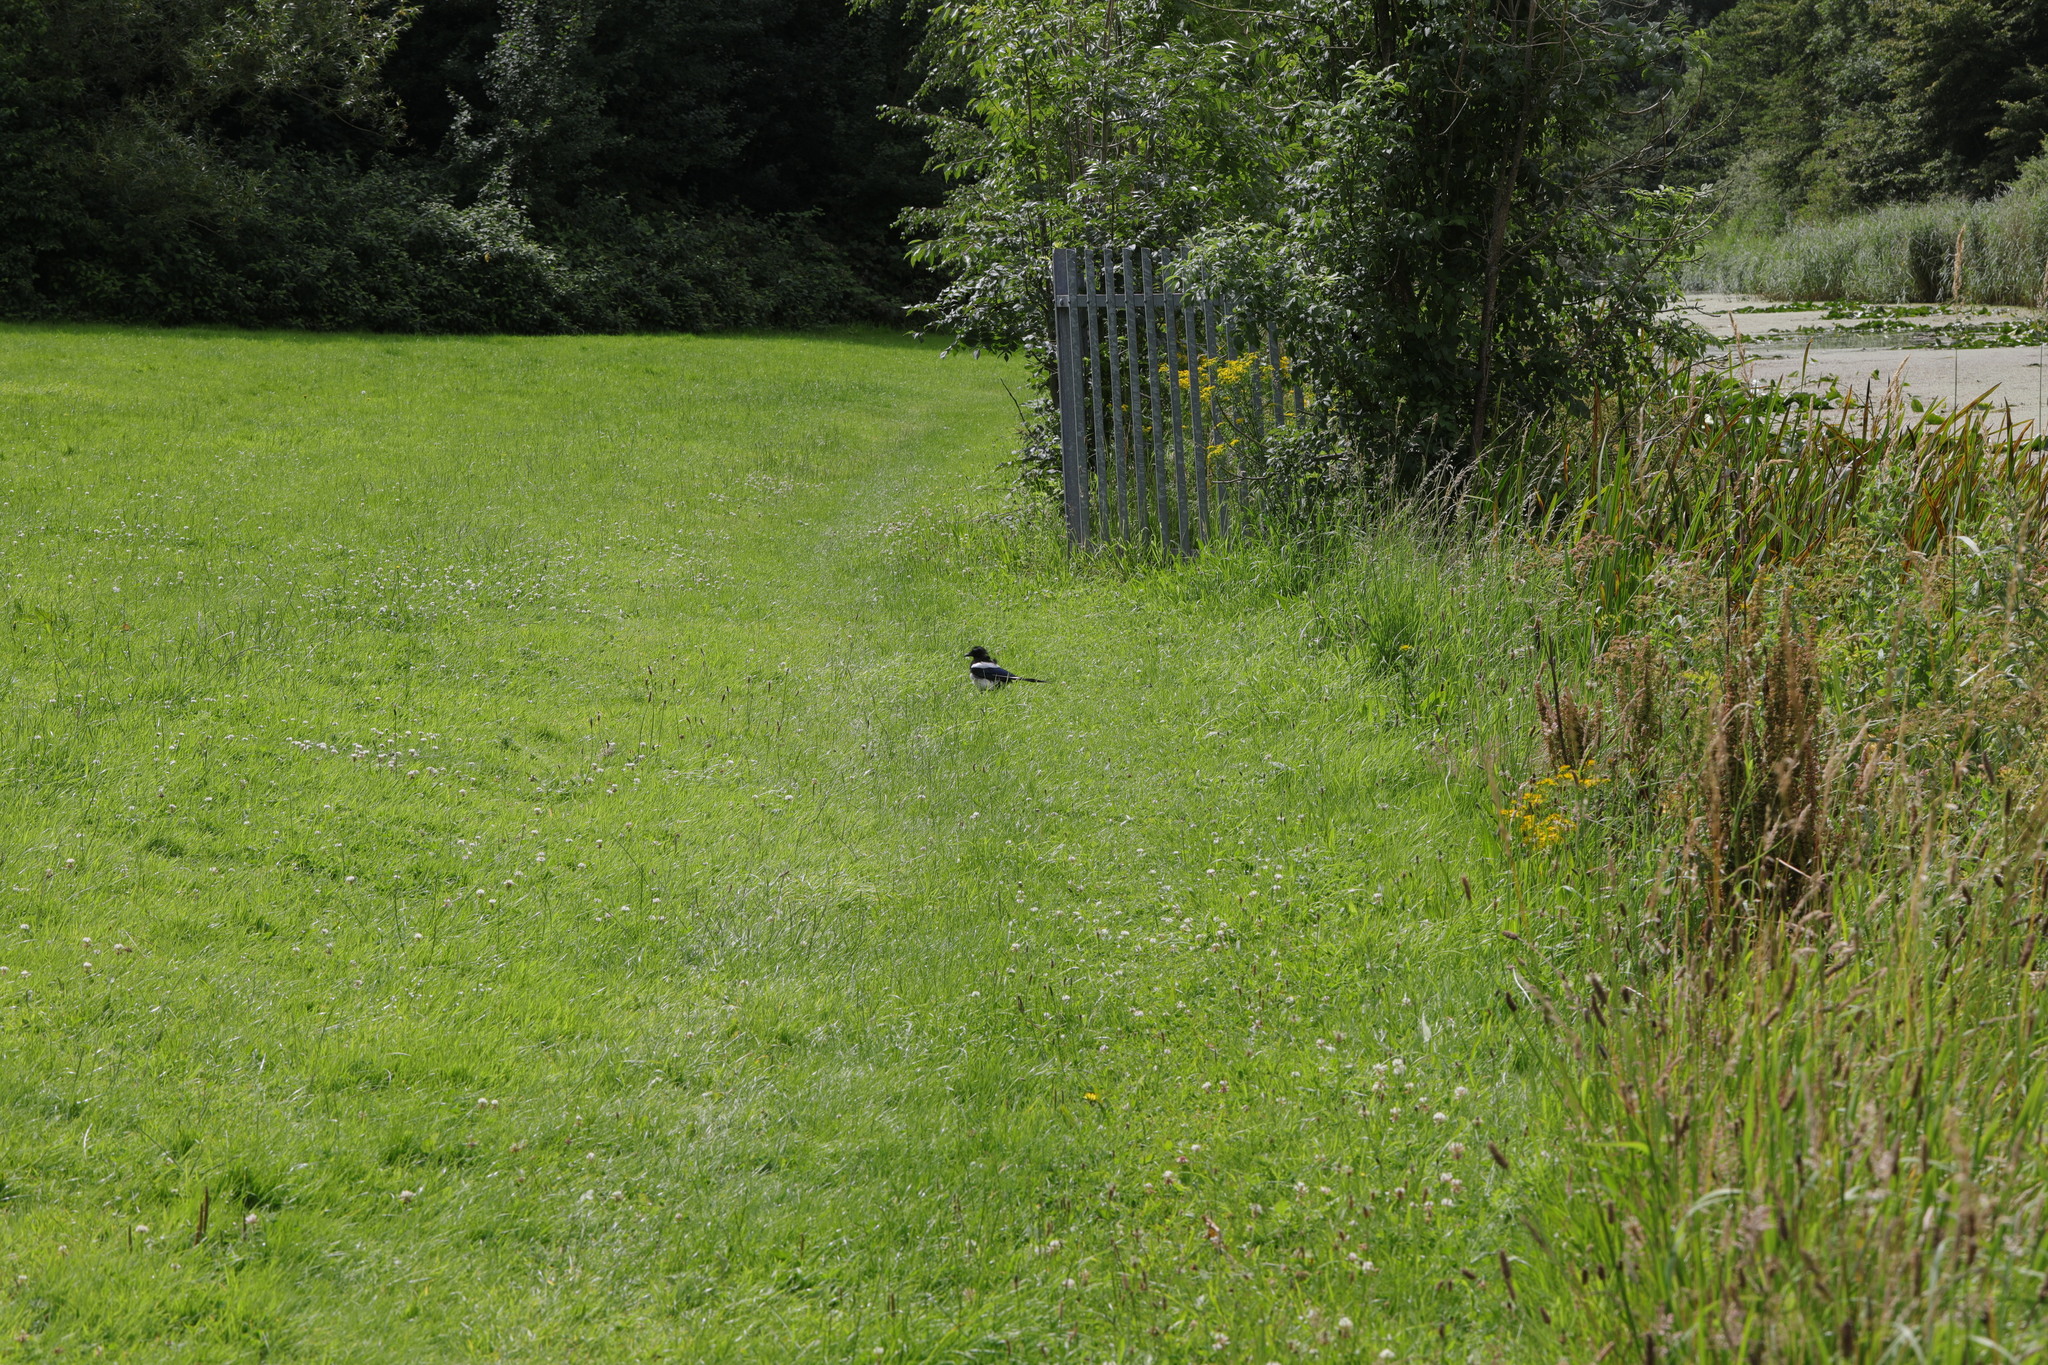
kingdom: Animalia
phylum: Chordata
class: Aves
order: Passeriformes
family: Corvidae
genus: Pica
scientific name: Pica pica
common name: Eurasian magpie
